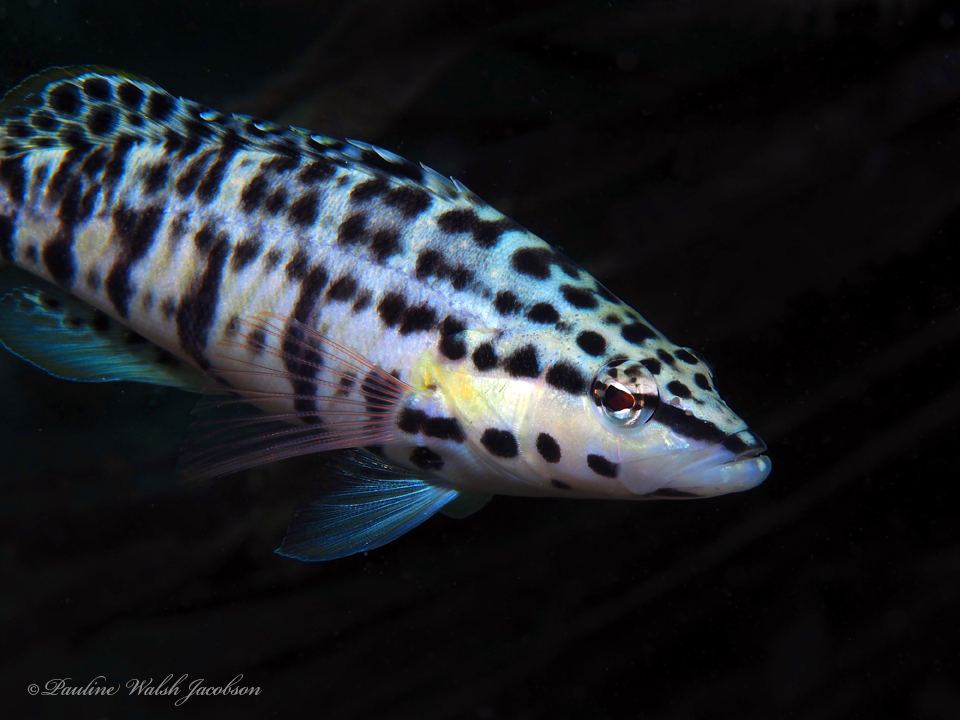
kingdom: Animalia
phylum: Chordata
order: Perciformes
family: Serranidae
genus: Serranus
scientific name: Serranus tigrinus
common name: Harlequin bass
